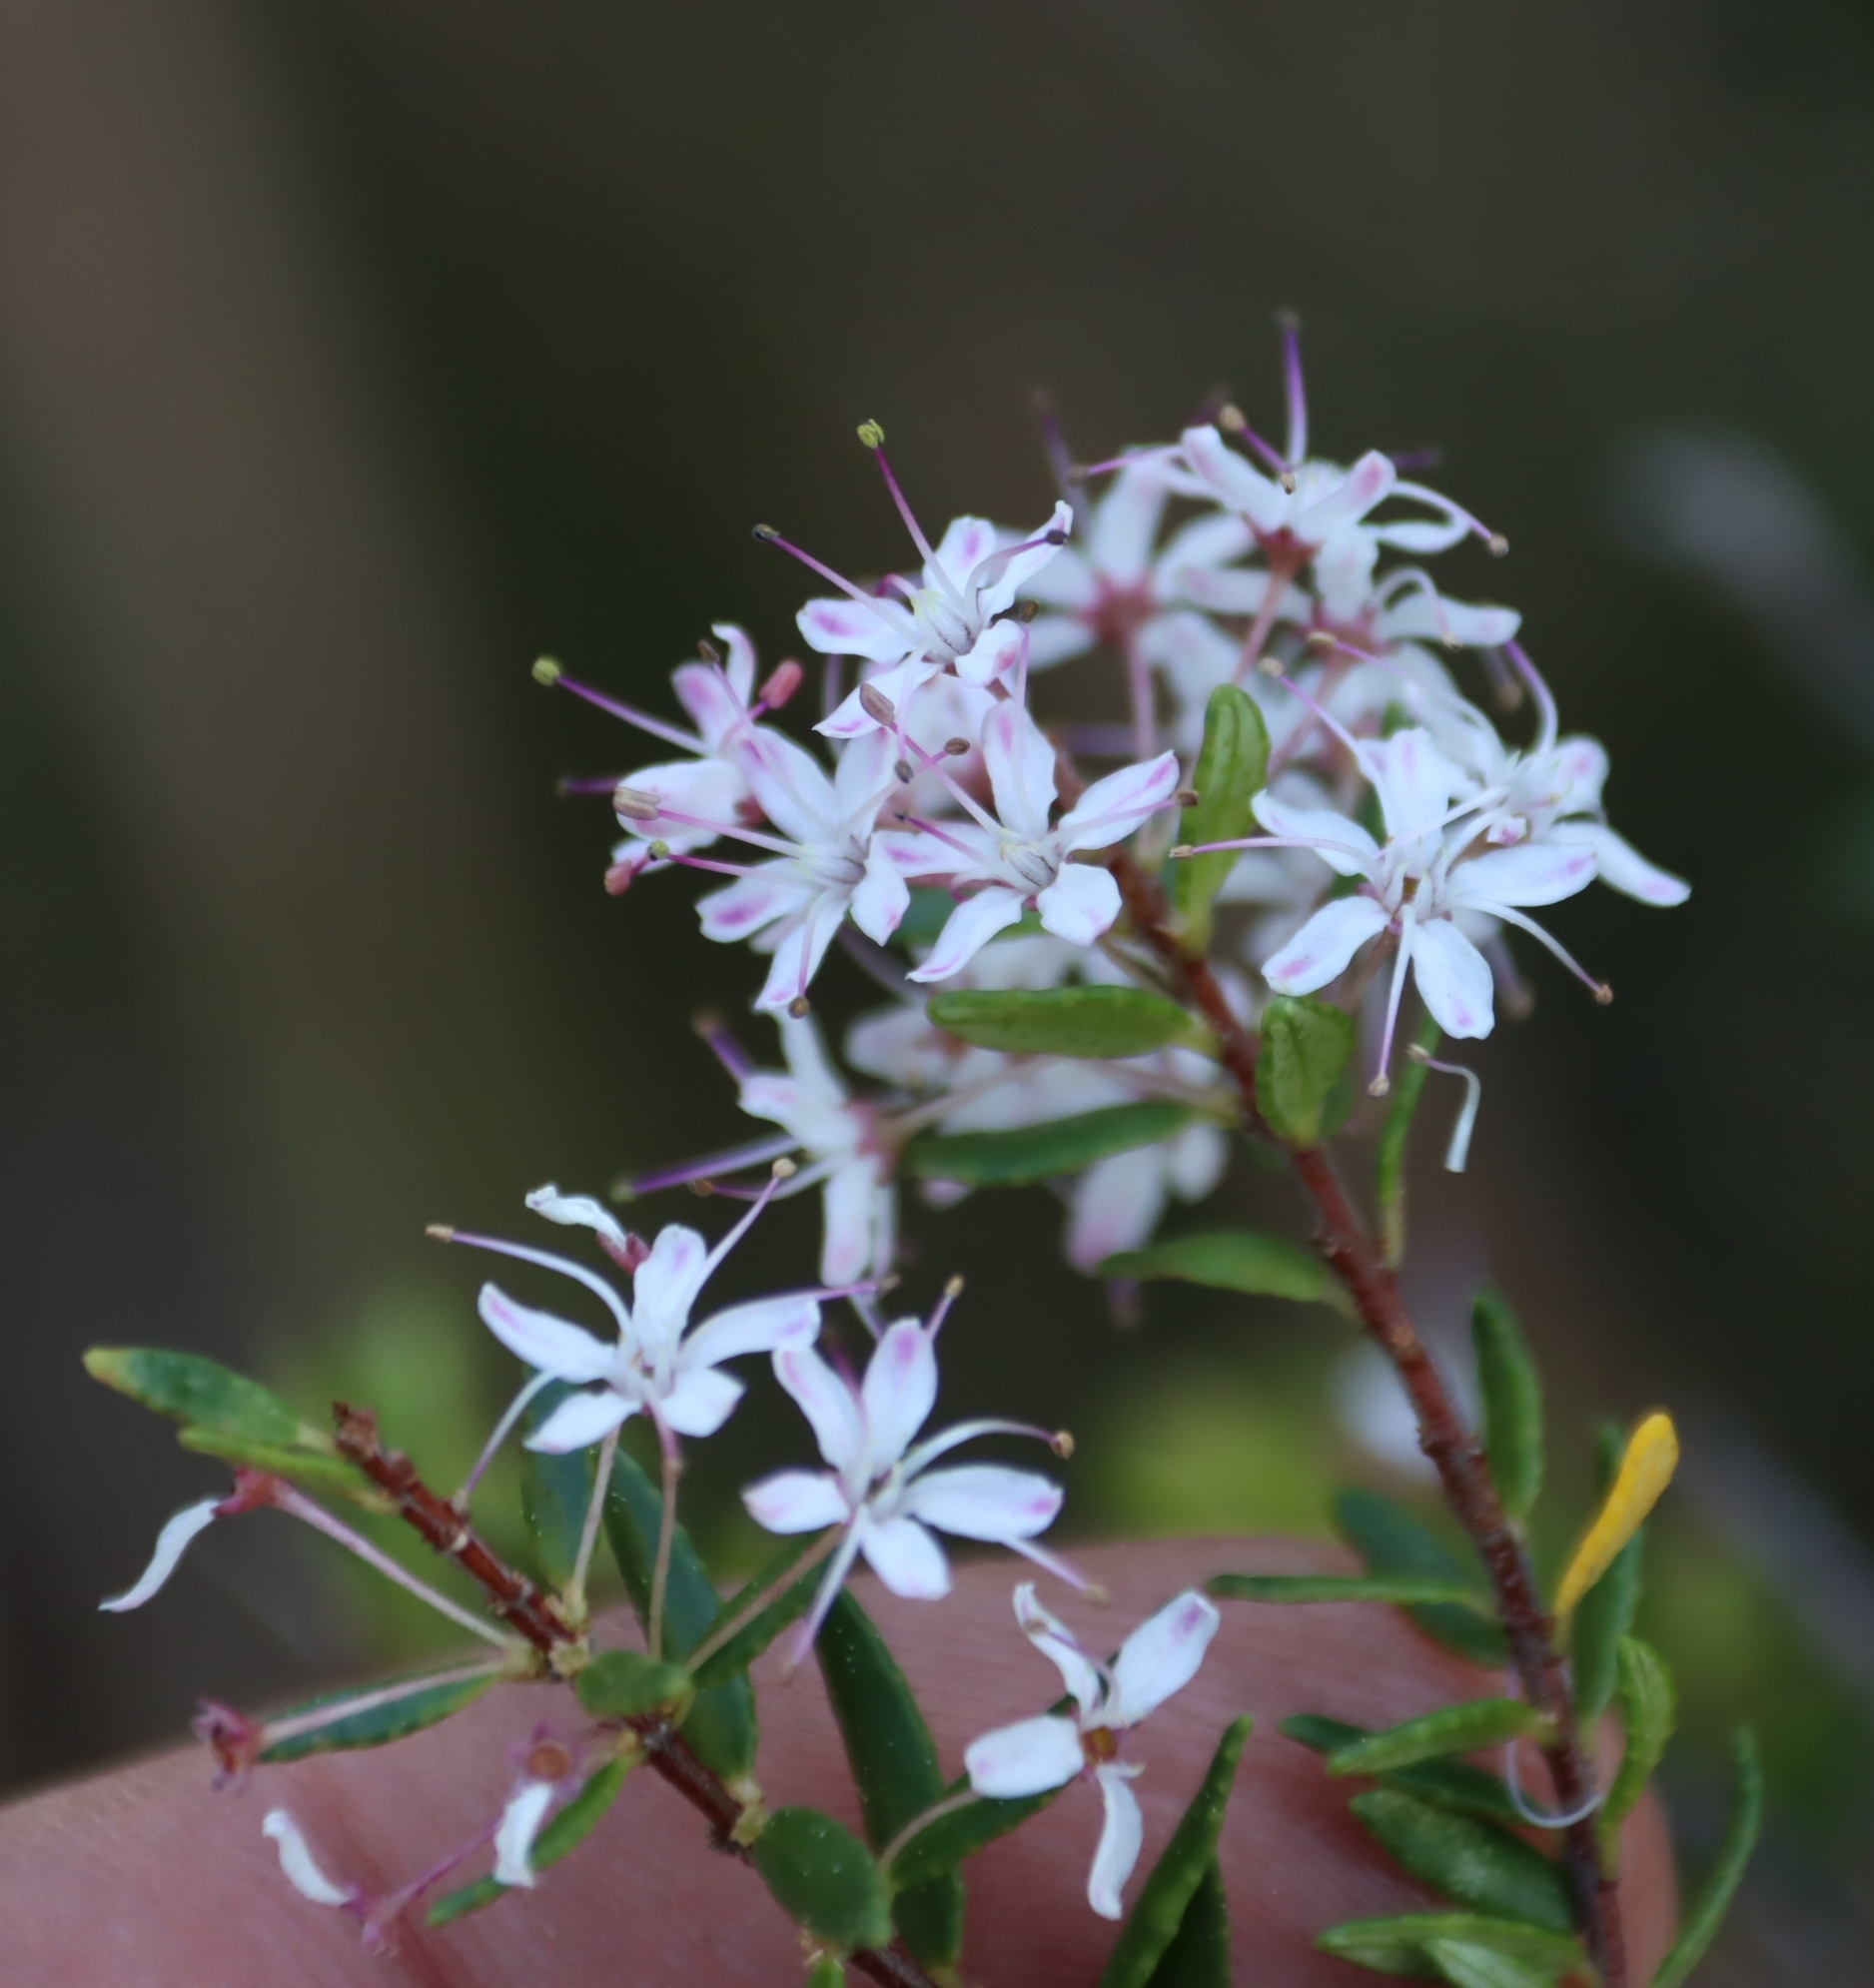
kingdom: Plantae
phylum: Tracheophyta
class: Magnoliopsida
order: Sapindales
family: Rutaceae
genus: Agathosma
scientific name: Agathosma ovata
